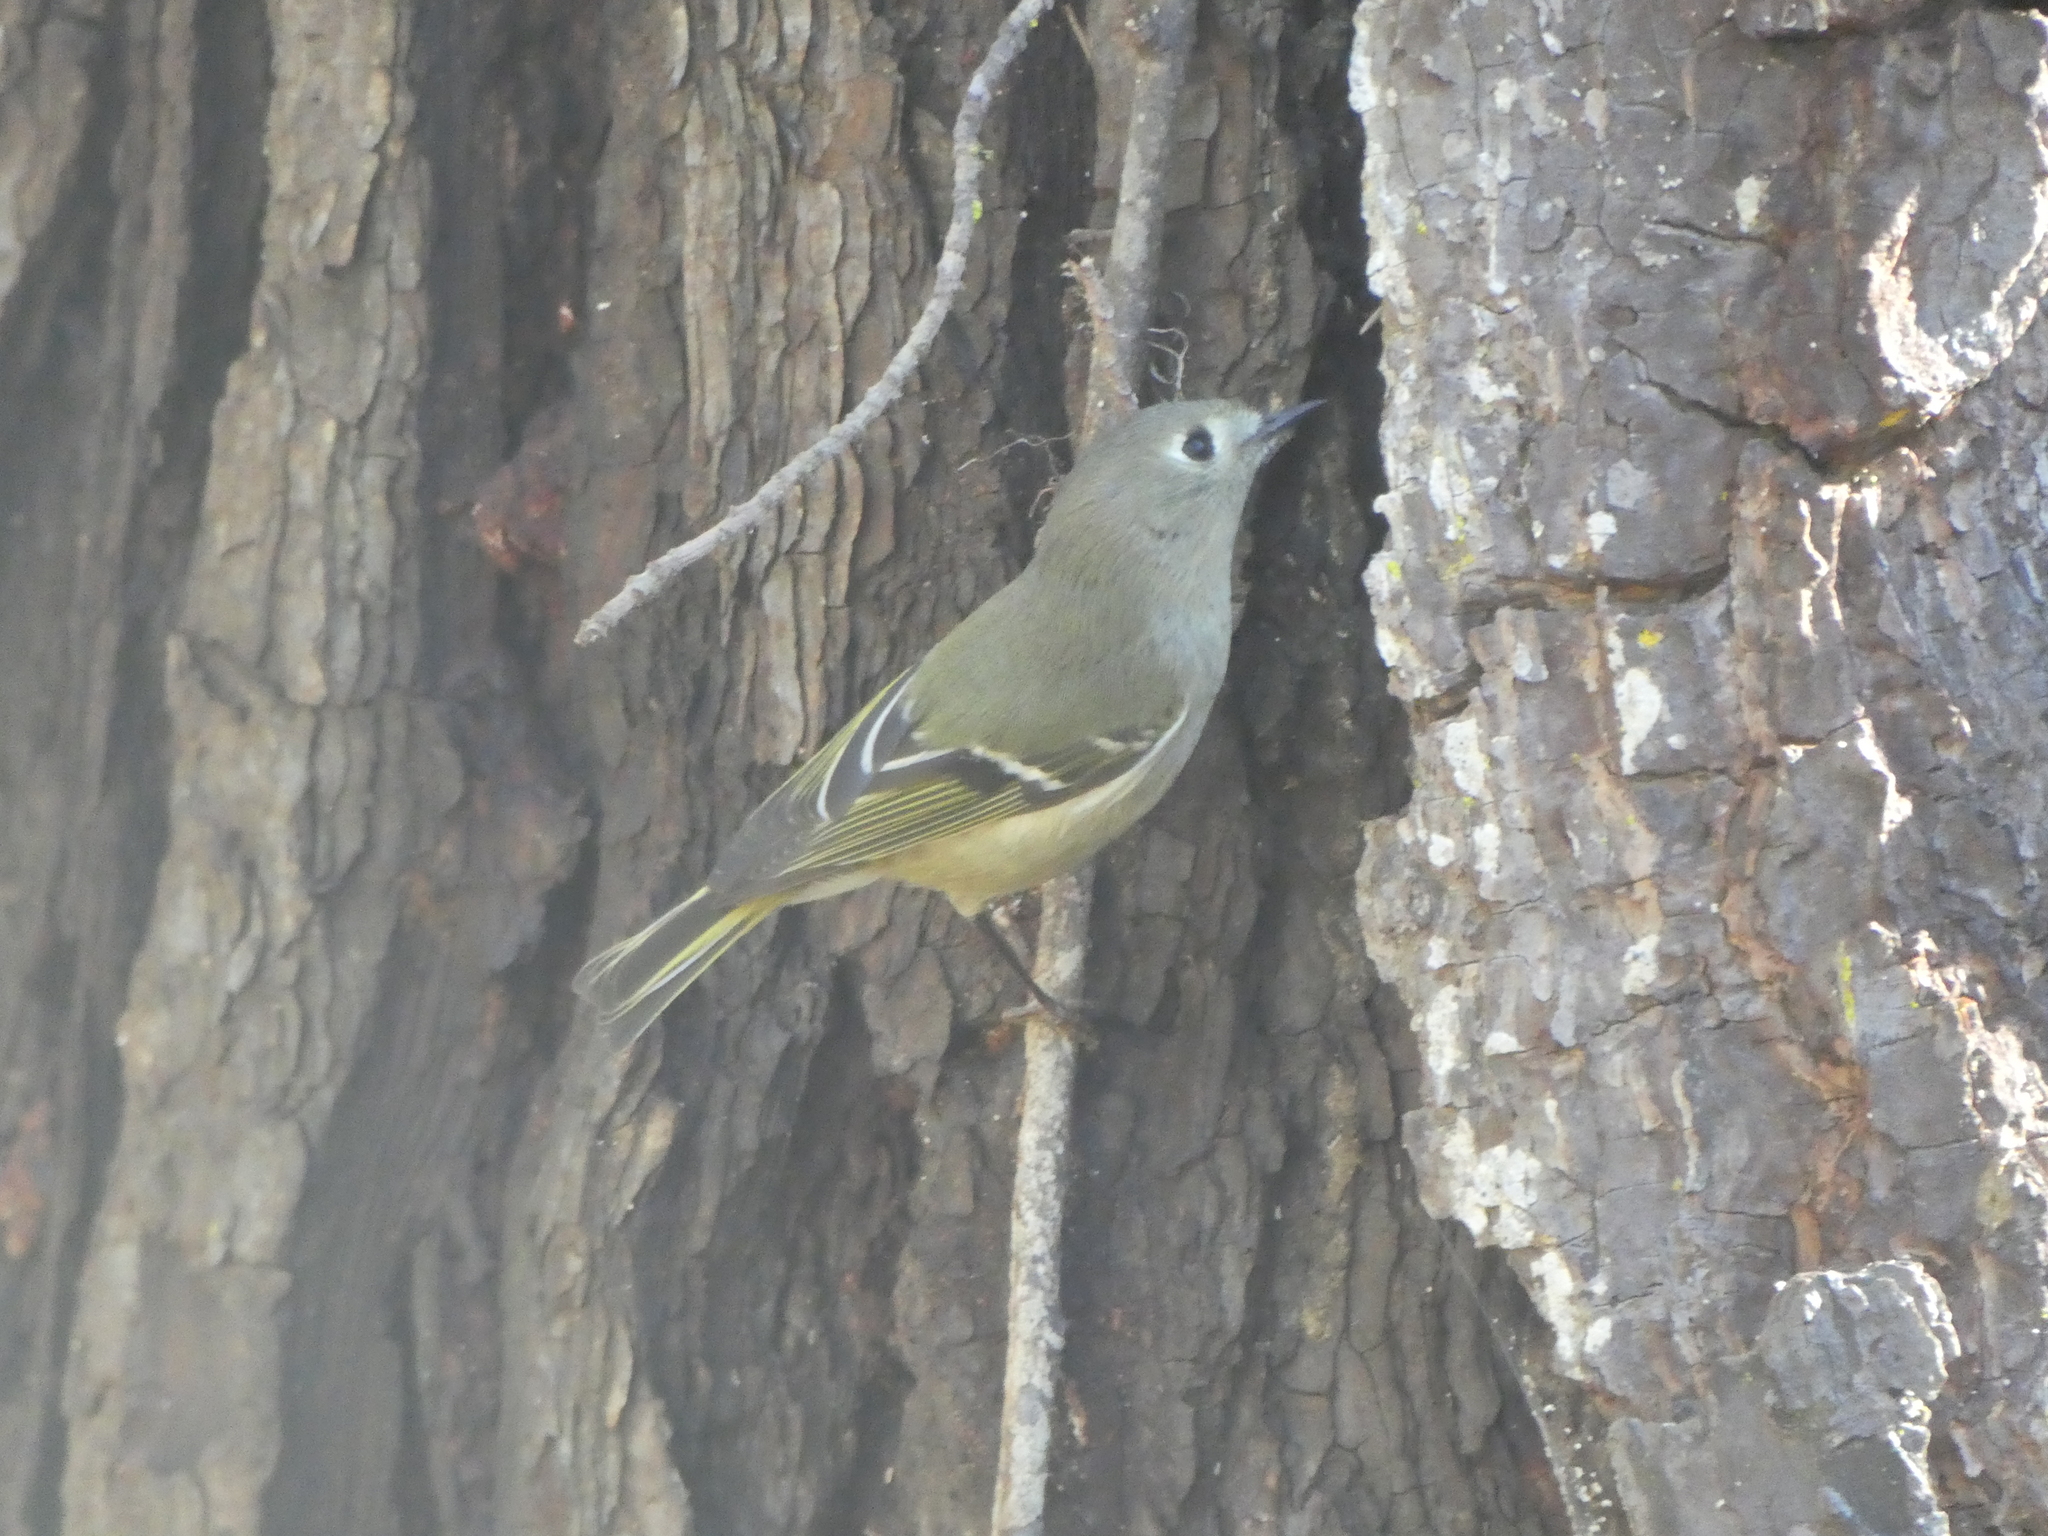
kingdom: Animalia
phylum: Chordata
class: Aves
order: Passeriformes
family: Regulidae
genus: Regulus
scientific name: Regulus calendula
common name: Ruby-crowned kinglet
